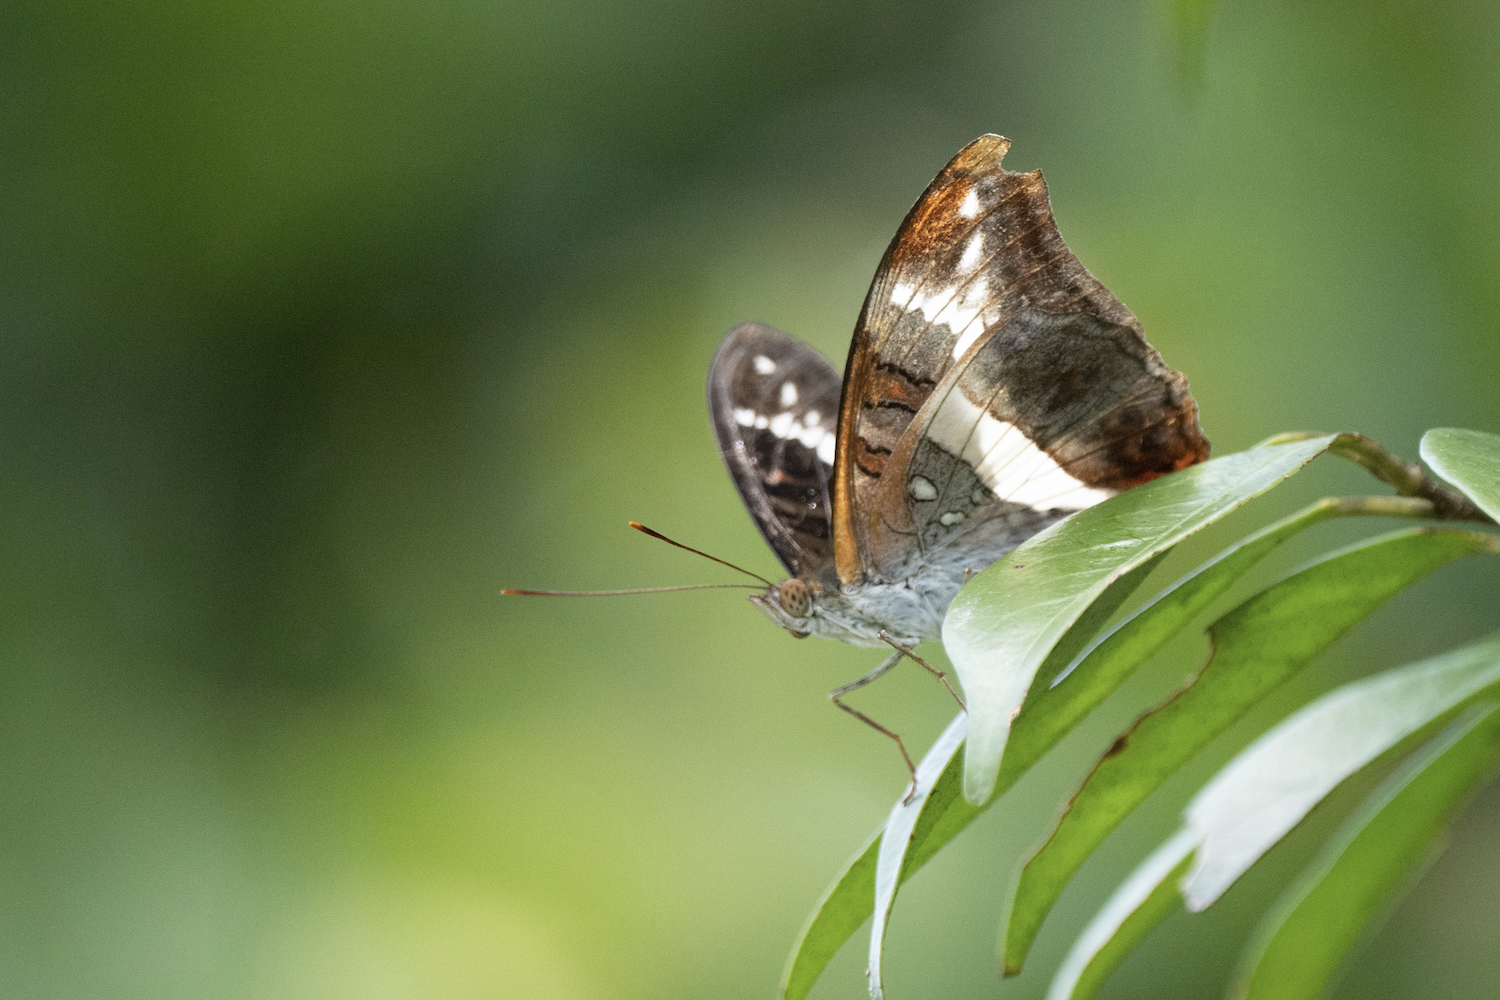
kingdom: Animalia
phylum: Arthropoda
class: Insecta
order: Lepidoptera
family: Nymphalidae
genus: Limenitis
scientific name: Limenitis Parasarpa dudu
